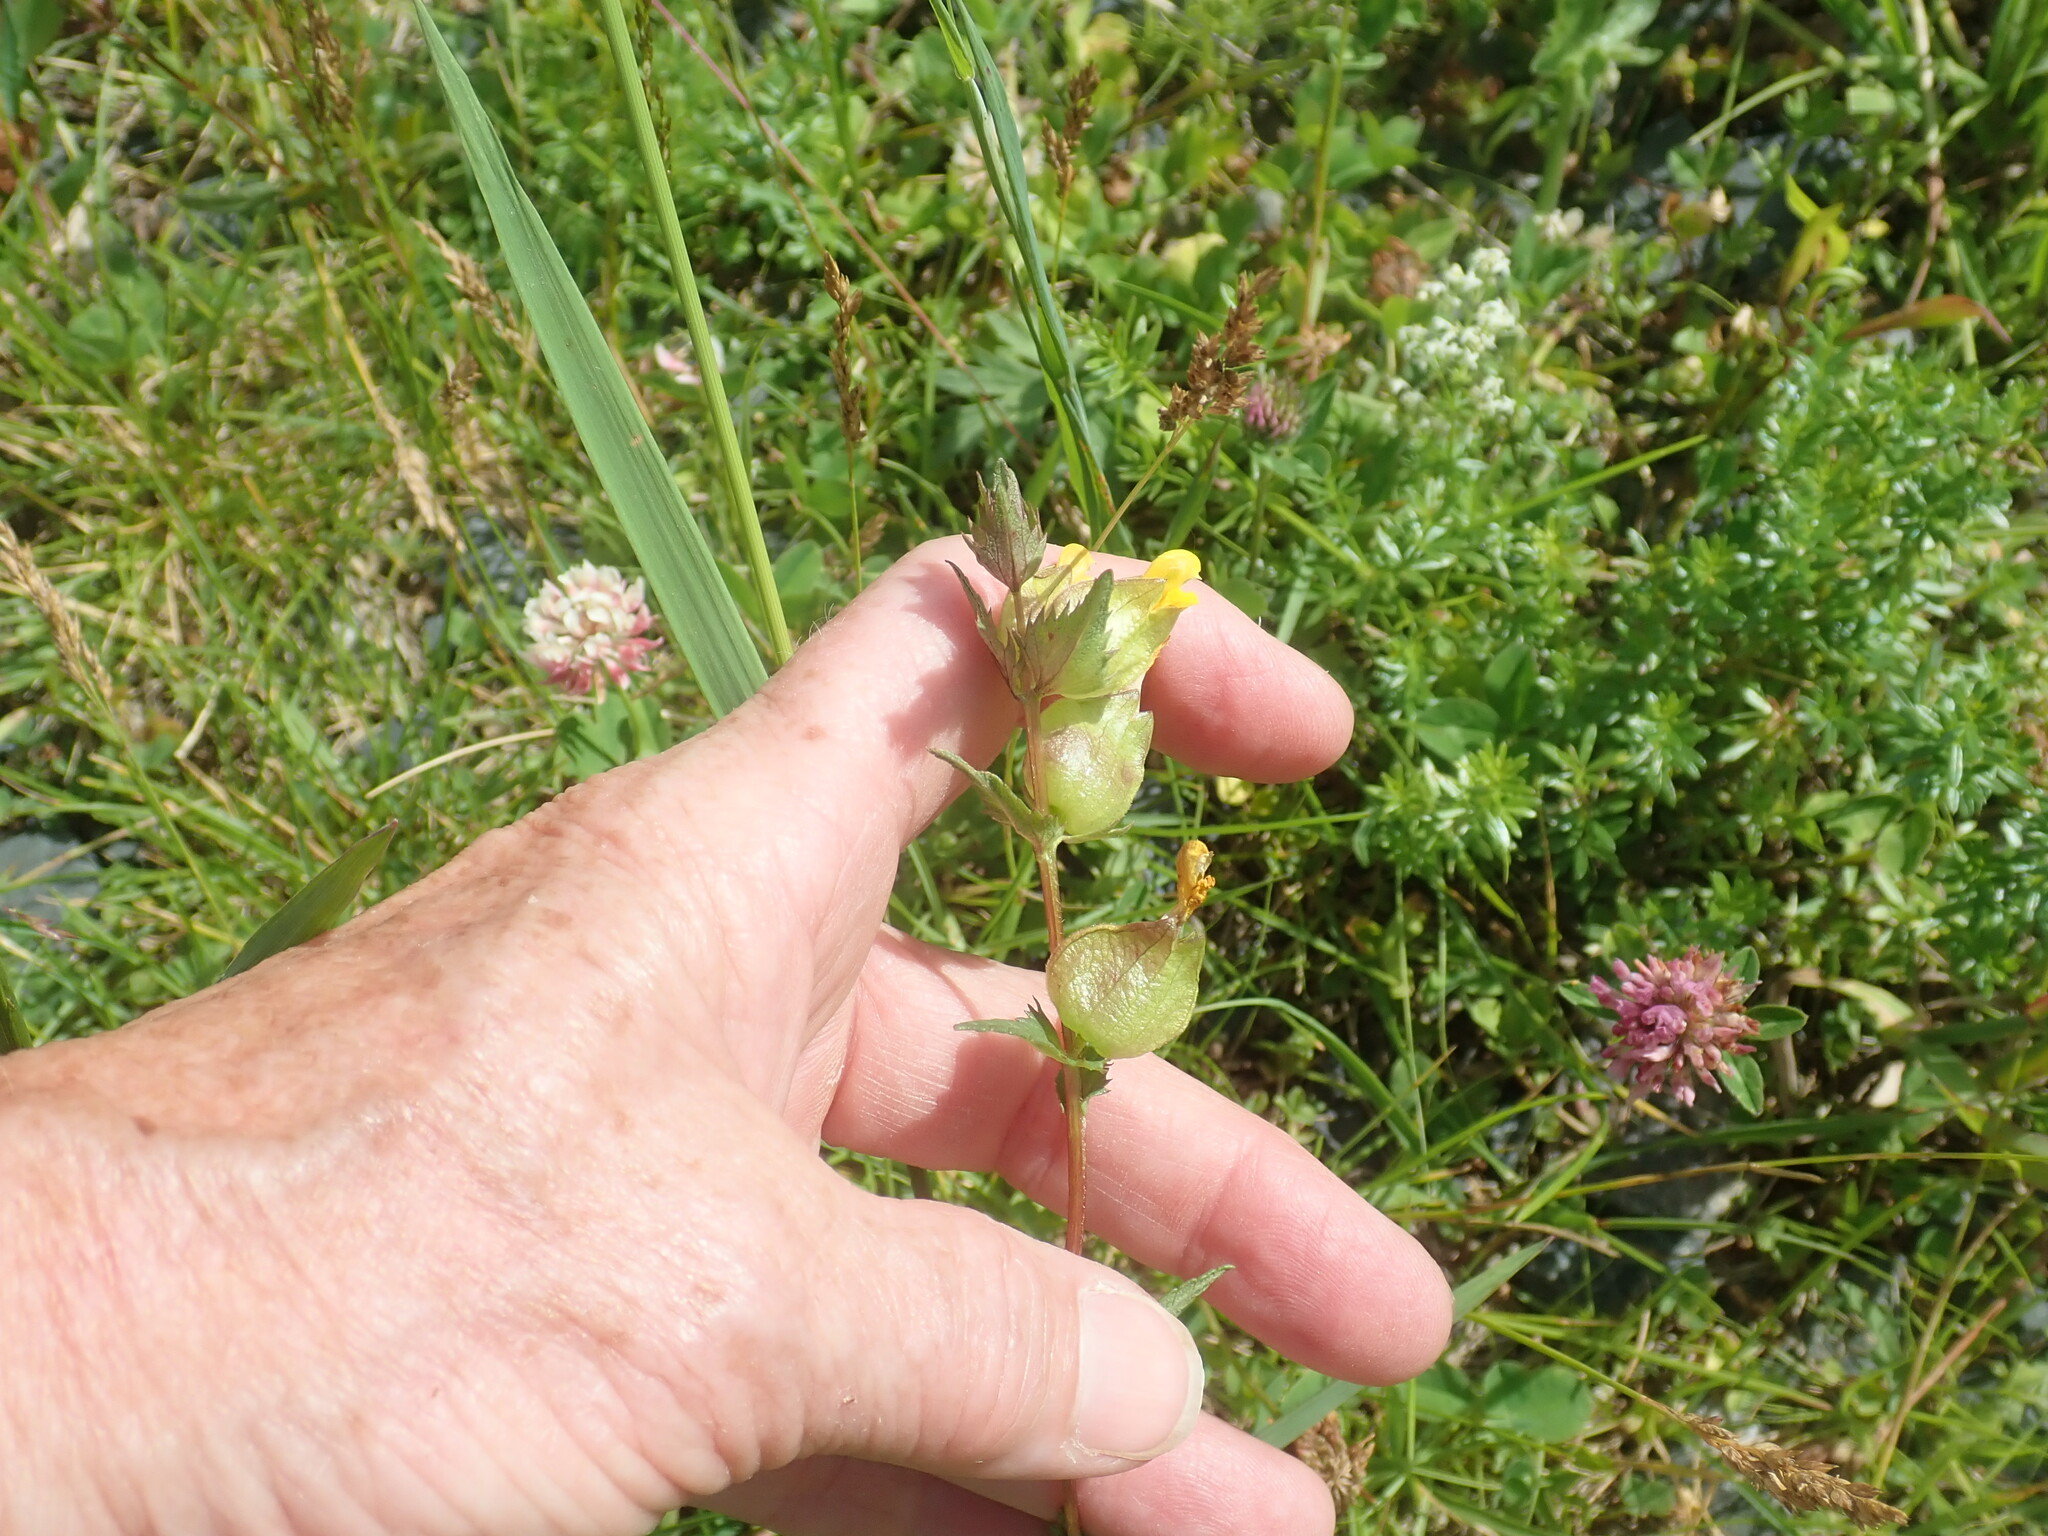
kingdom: Plantae
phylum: Tracheophyta
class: Magnoliopsida
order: Lamiales
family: Orobanchaceae
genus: Rhinanthus
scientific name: Rhinanthus minor
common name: Yellow-rattle
